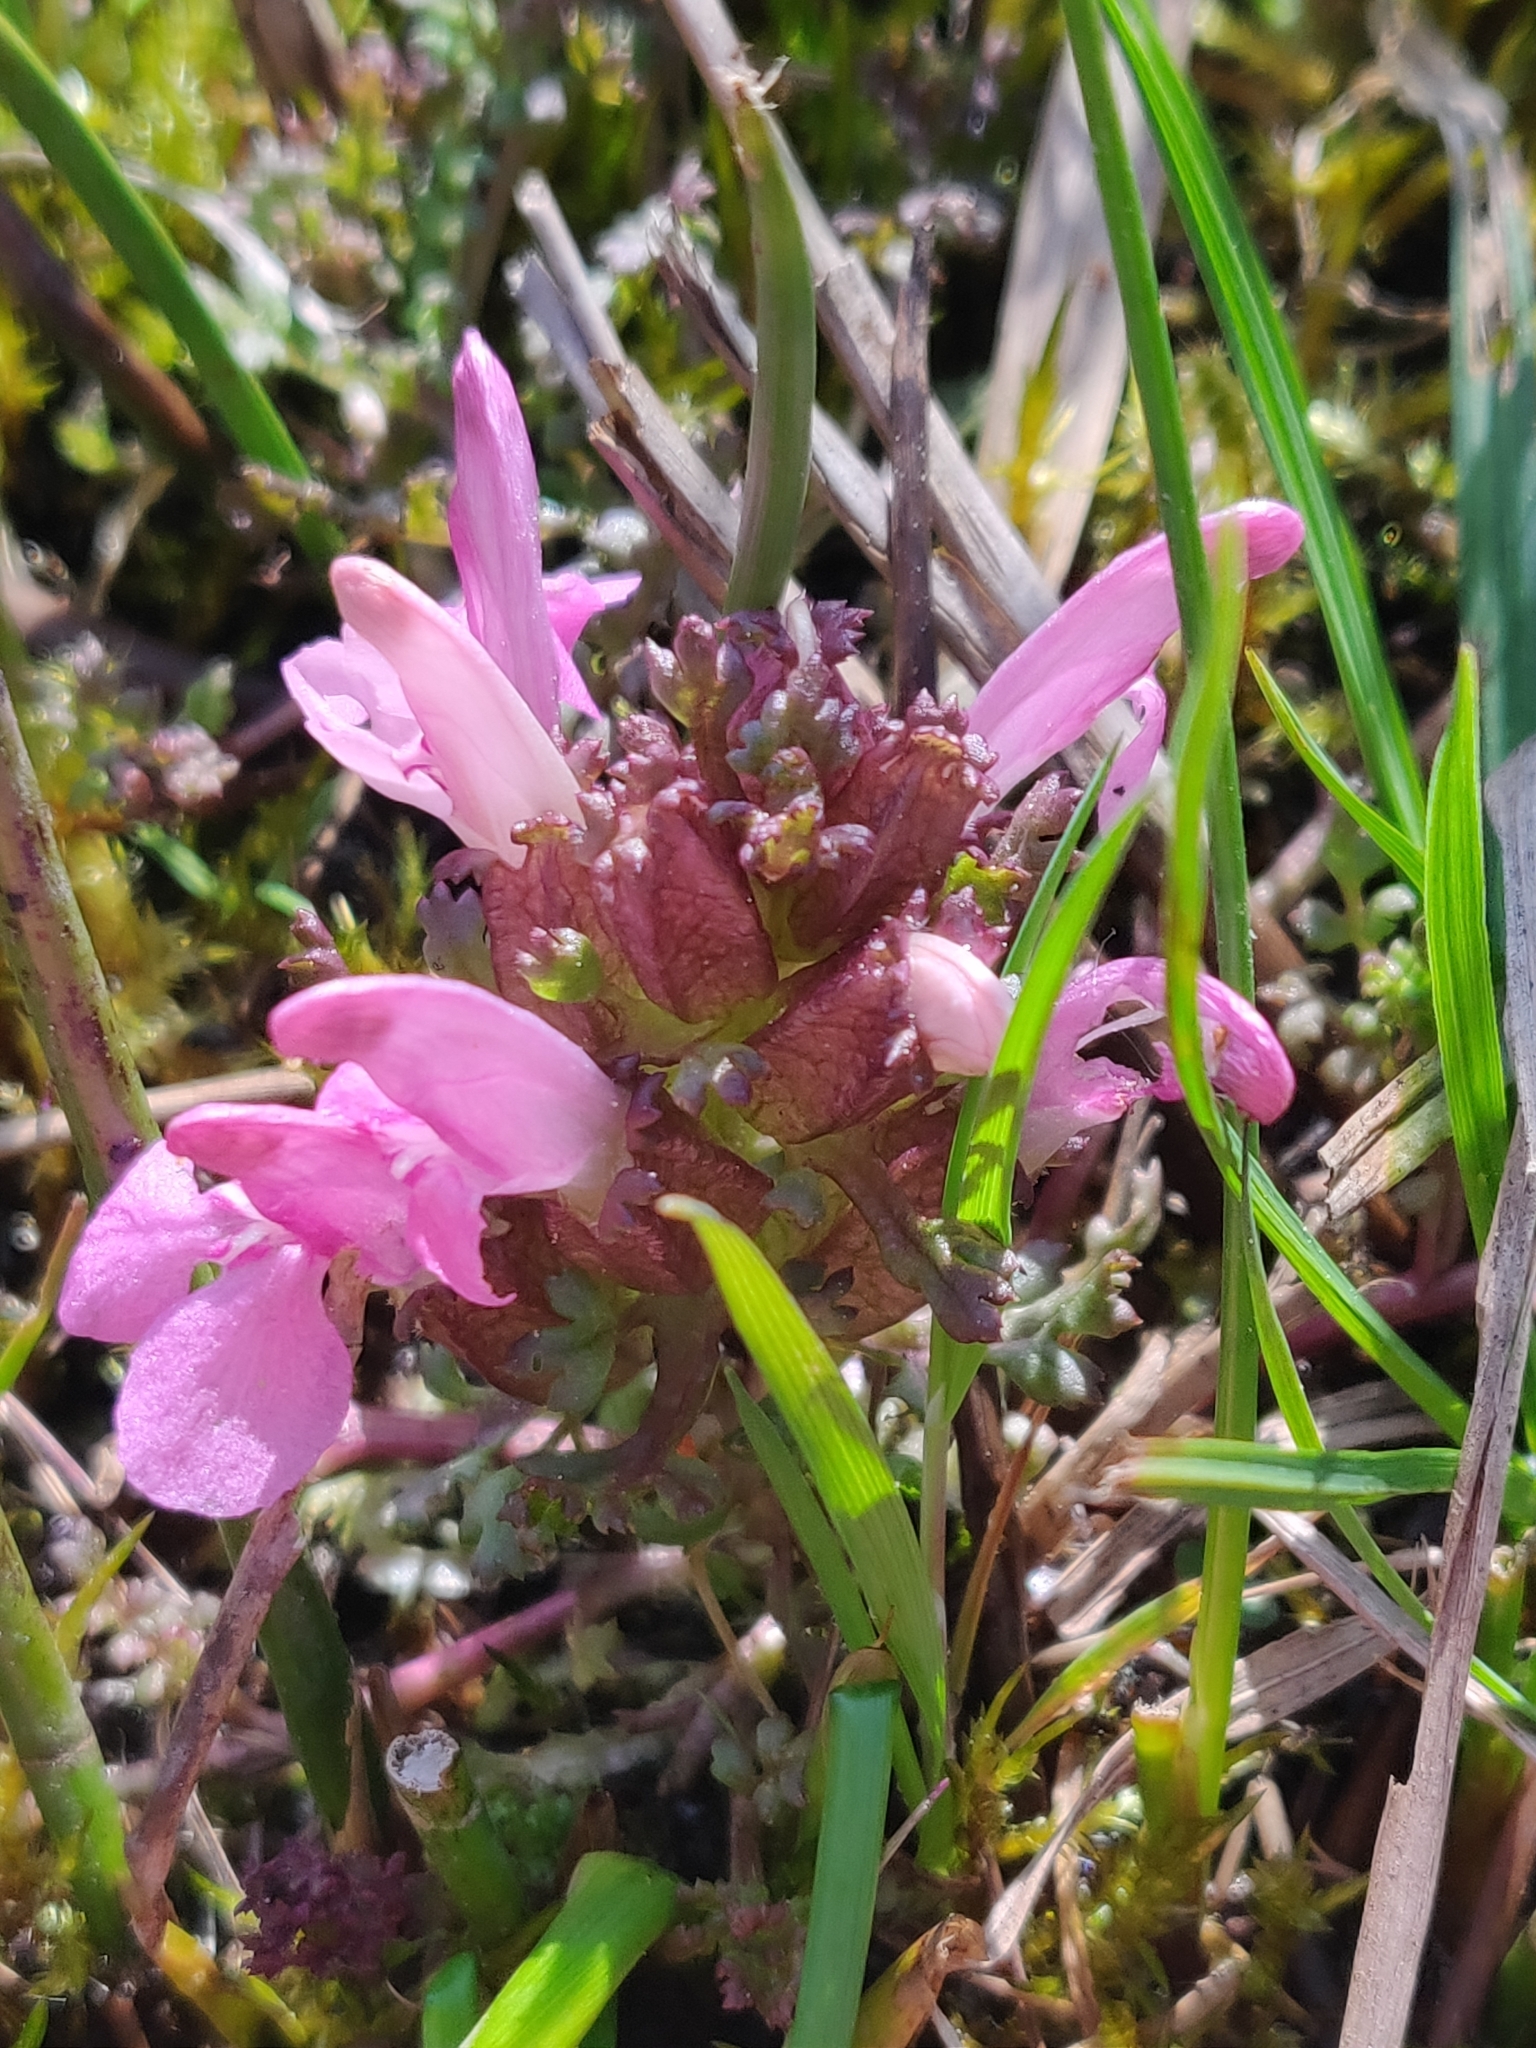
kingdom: Plantae
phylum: Tracheophyta
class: Magnoliopsida
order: Lamiales
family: Orobanchaceae
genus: Pedicularis
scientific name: Pedicularis sylvatica
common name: Lousewort
